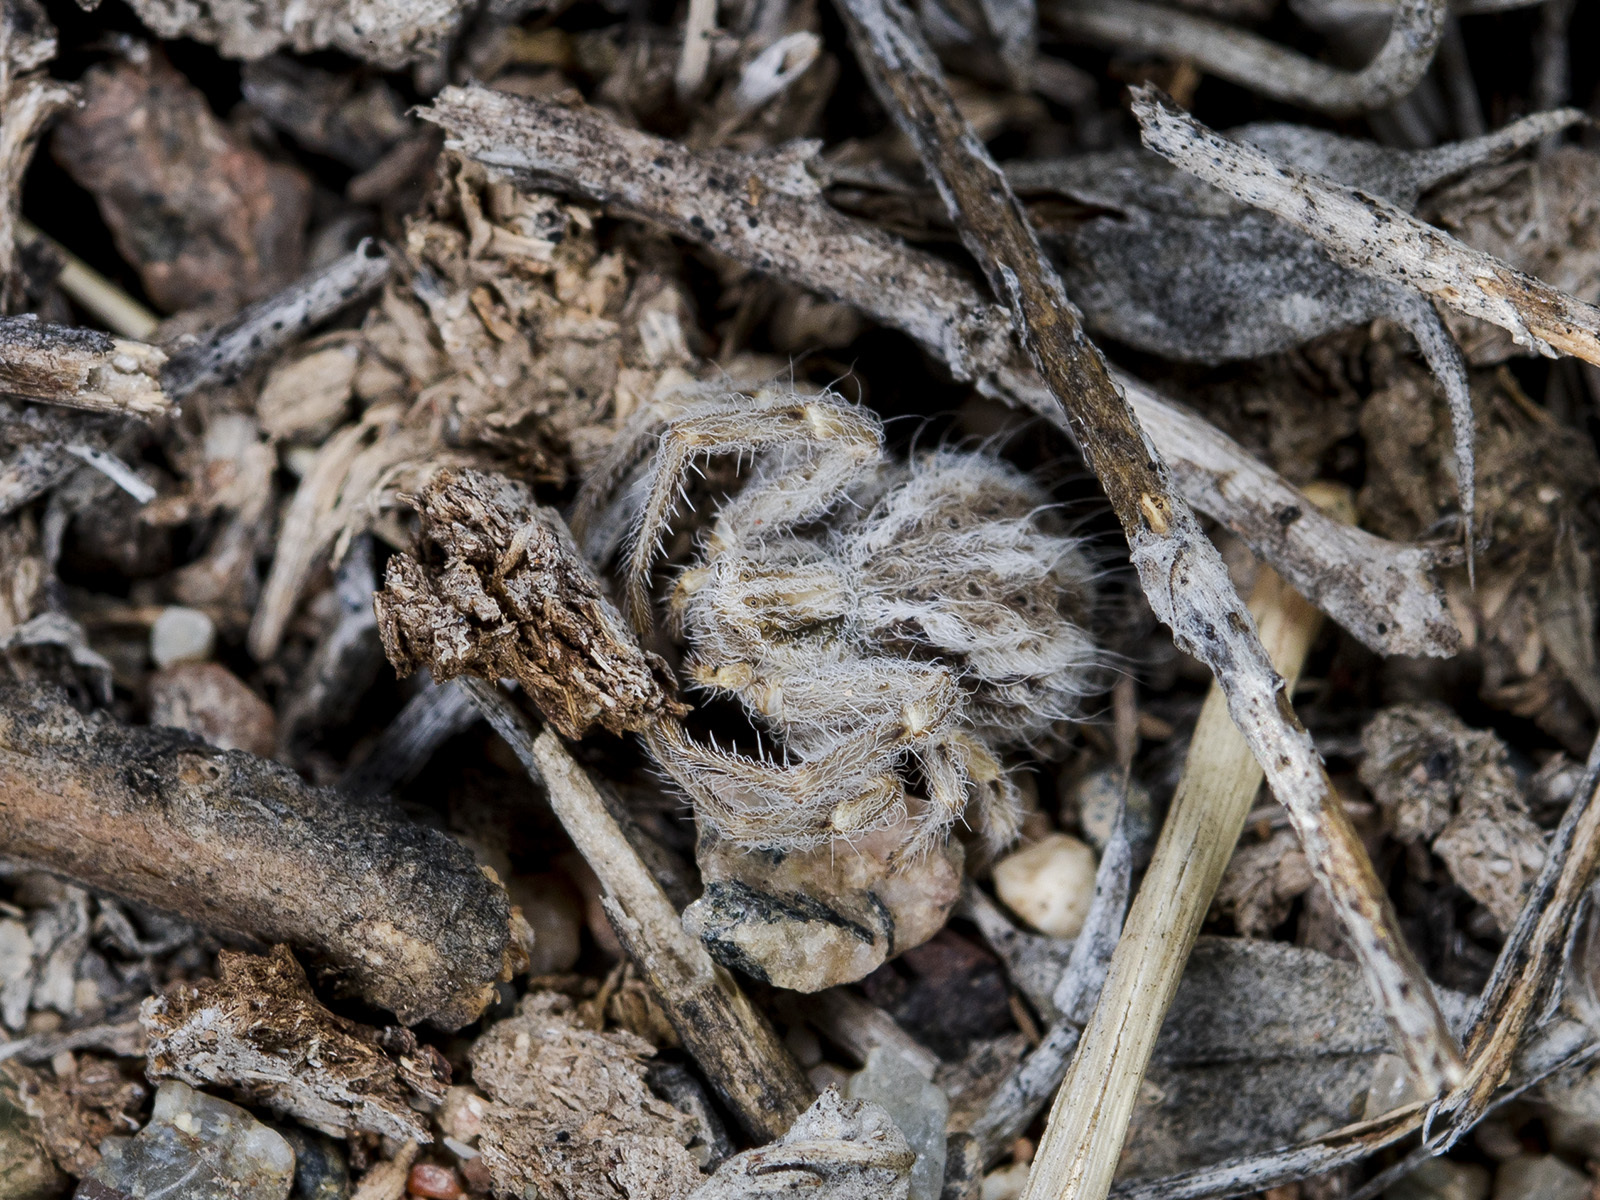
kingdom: Animalia
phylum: Arthropoda
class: Arachnida
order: Araneae
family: Thomisidae
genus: Heriaeus
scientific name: Heriaeus horridus
